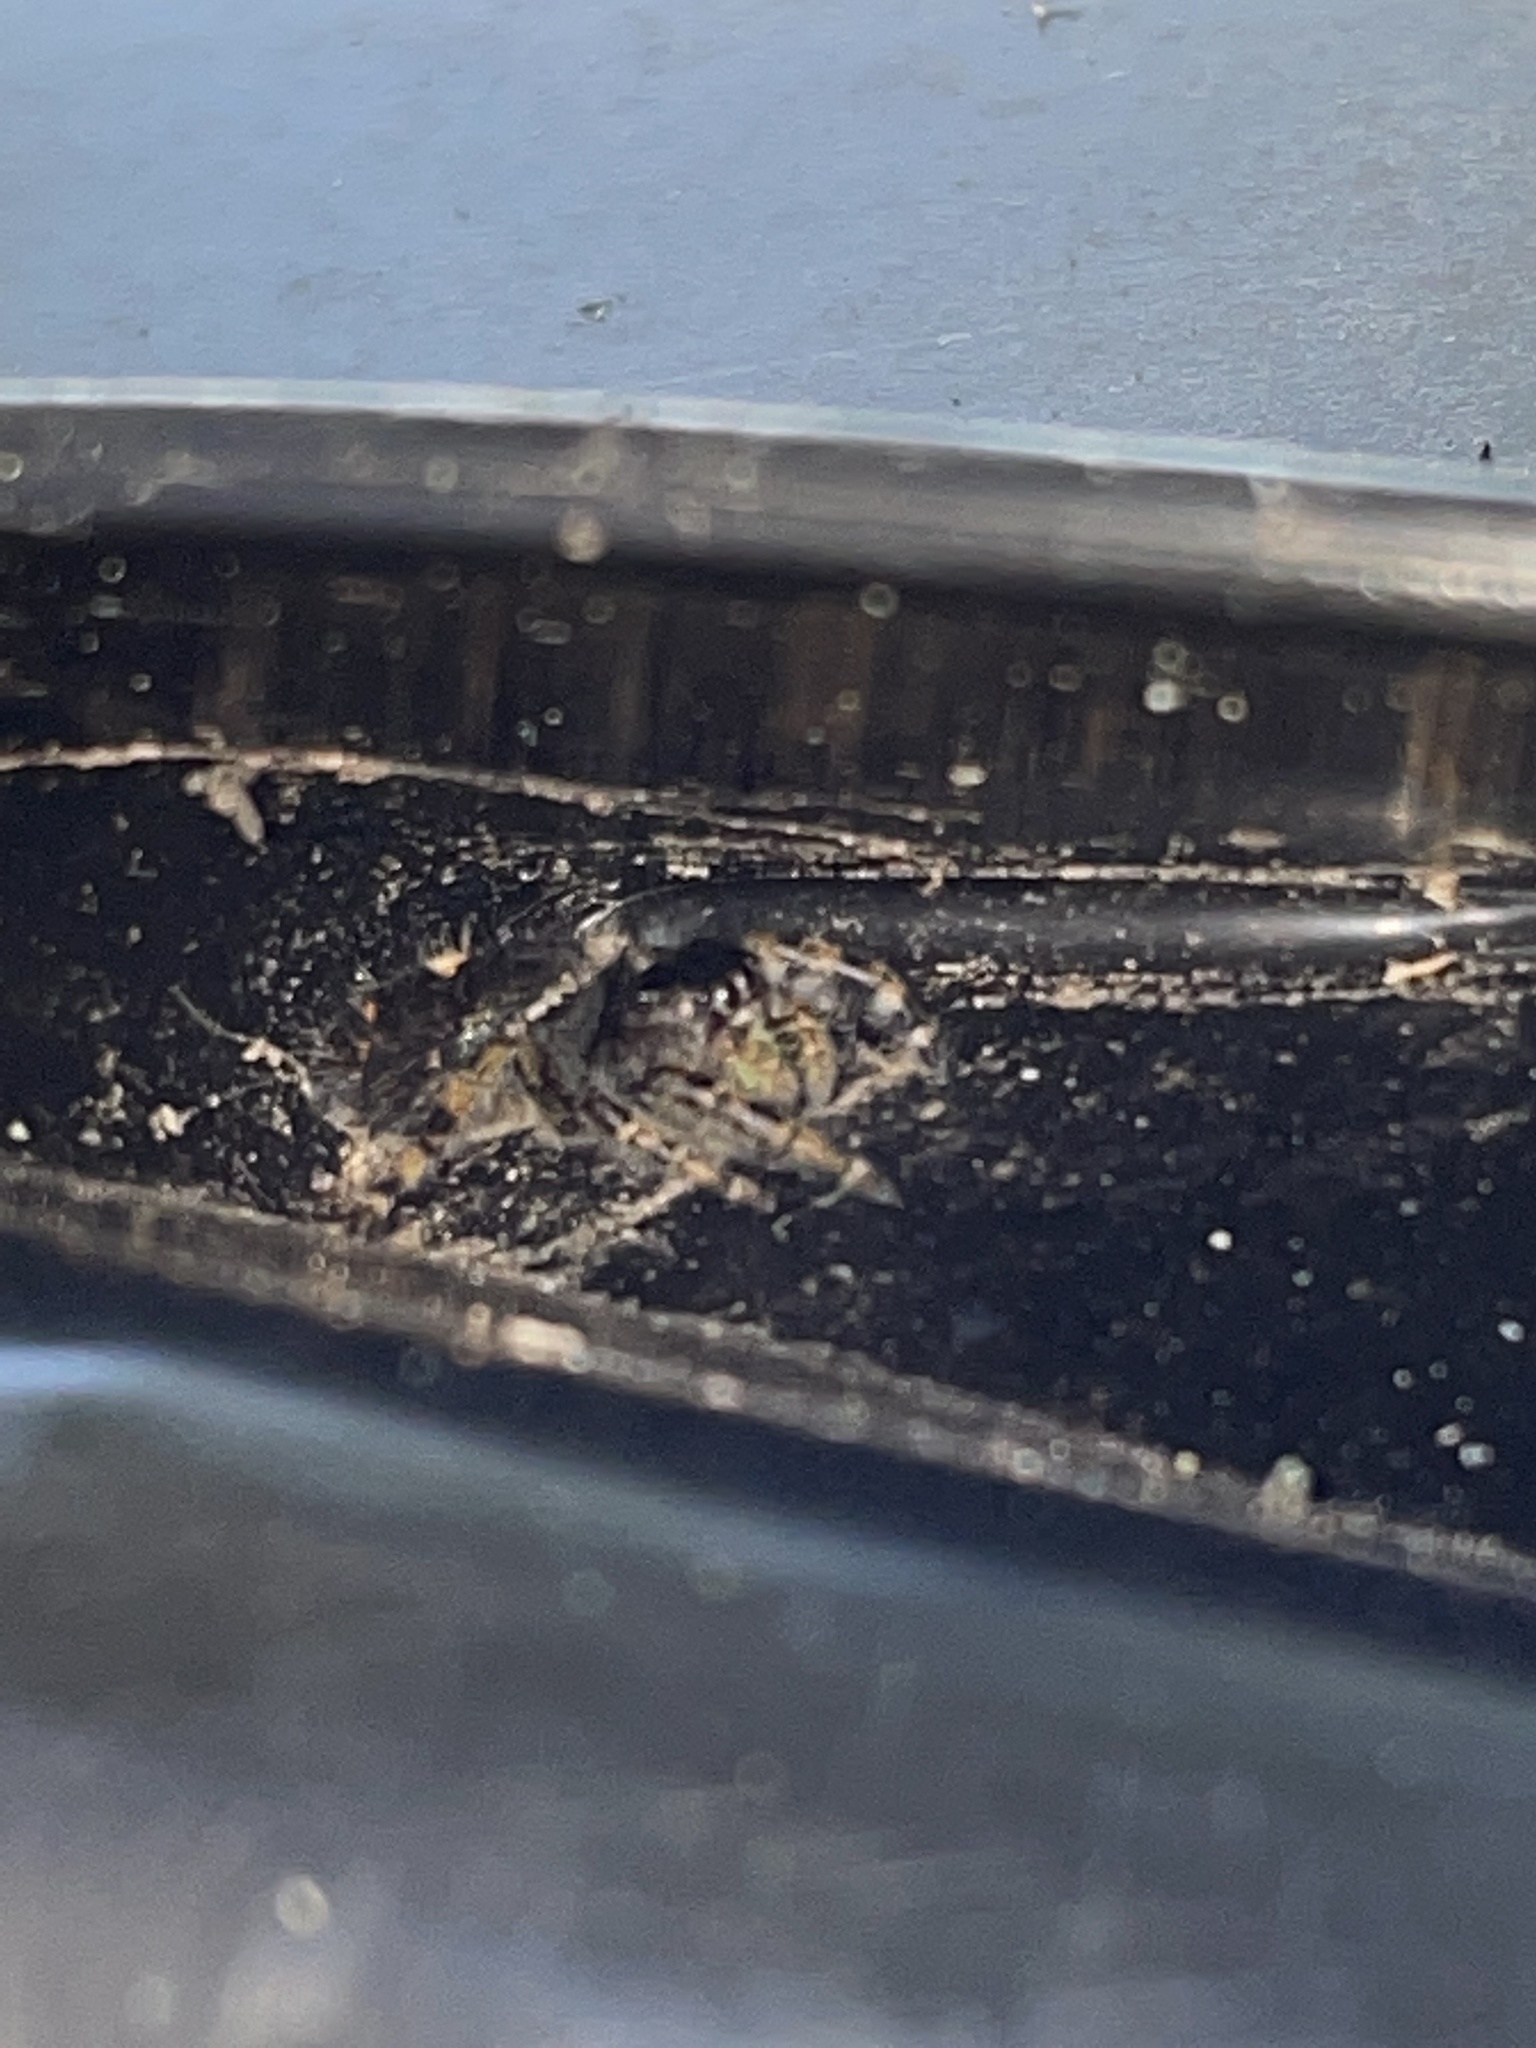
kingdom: Animalia
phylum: Arthropoda
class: Arachnida
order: Araneae
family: Salticidae
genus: Phidippus
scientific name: Phidippus audax
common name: Bold jumper
